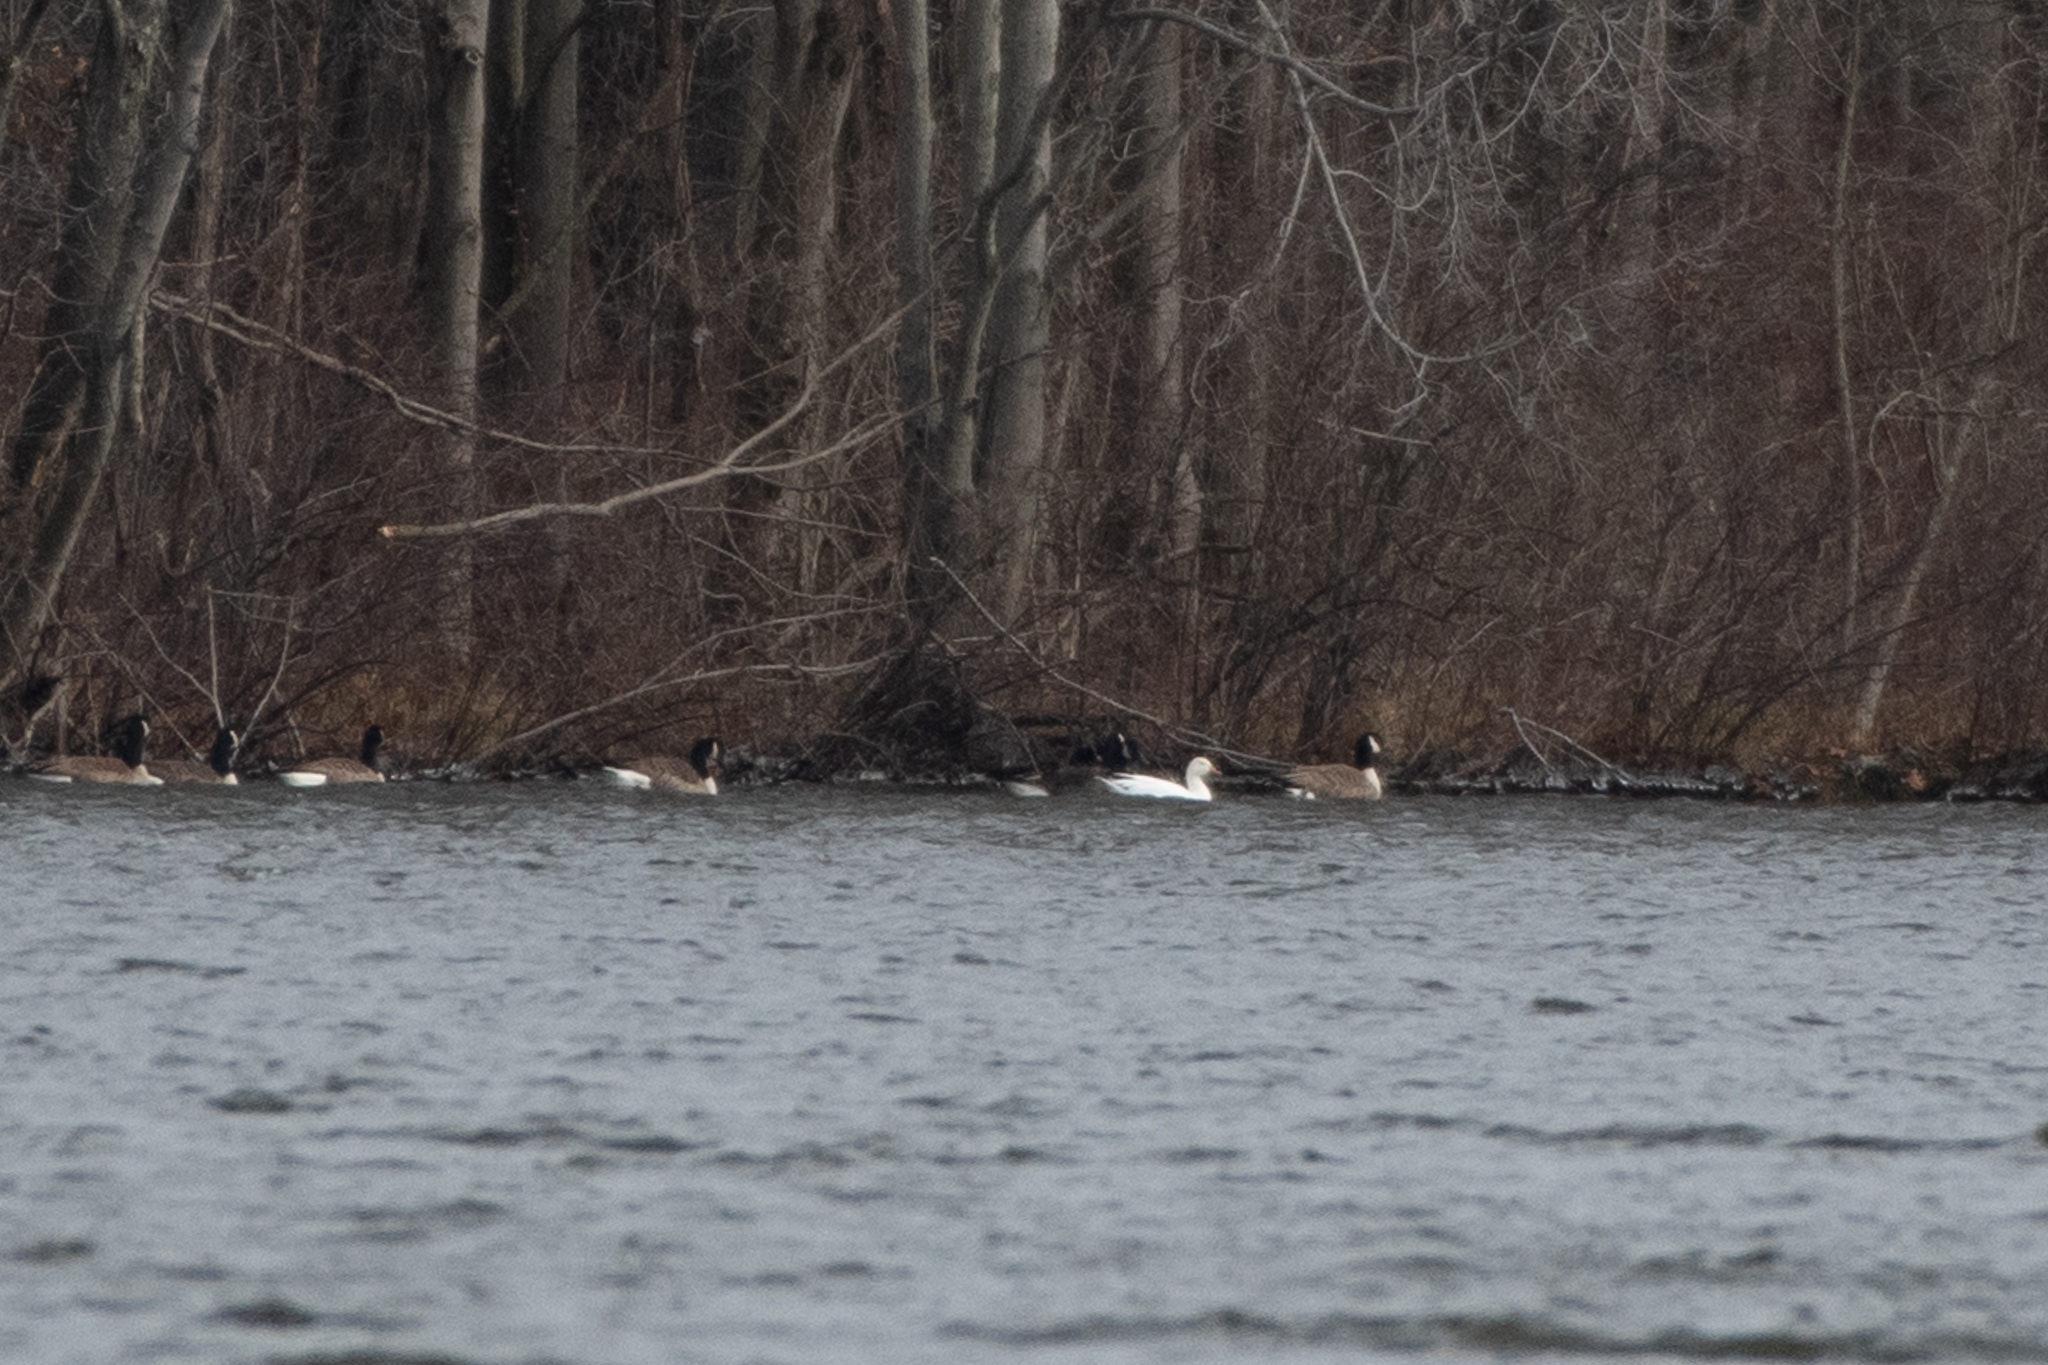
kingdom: Animalia
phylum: Chordata
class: Aves
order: Anseriformes
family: Anatidae
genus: Anser
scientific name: Anser caerulescens
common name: Snow goose
